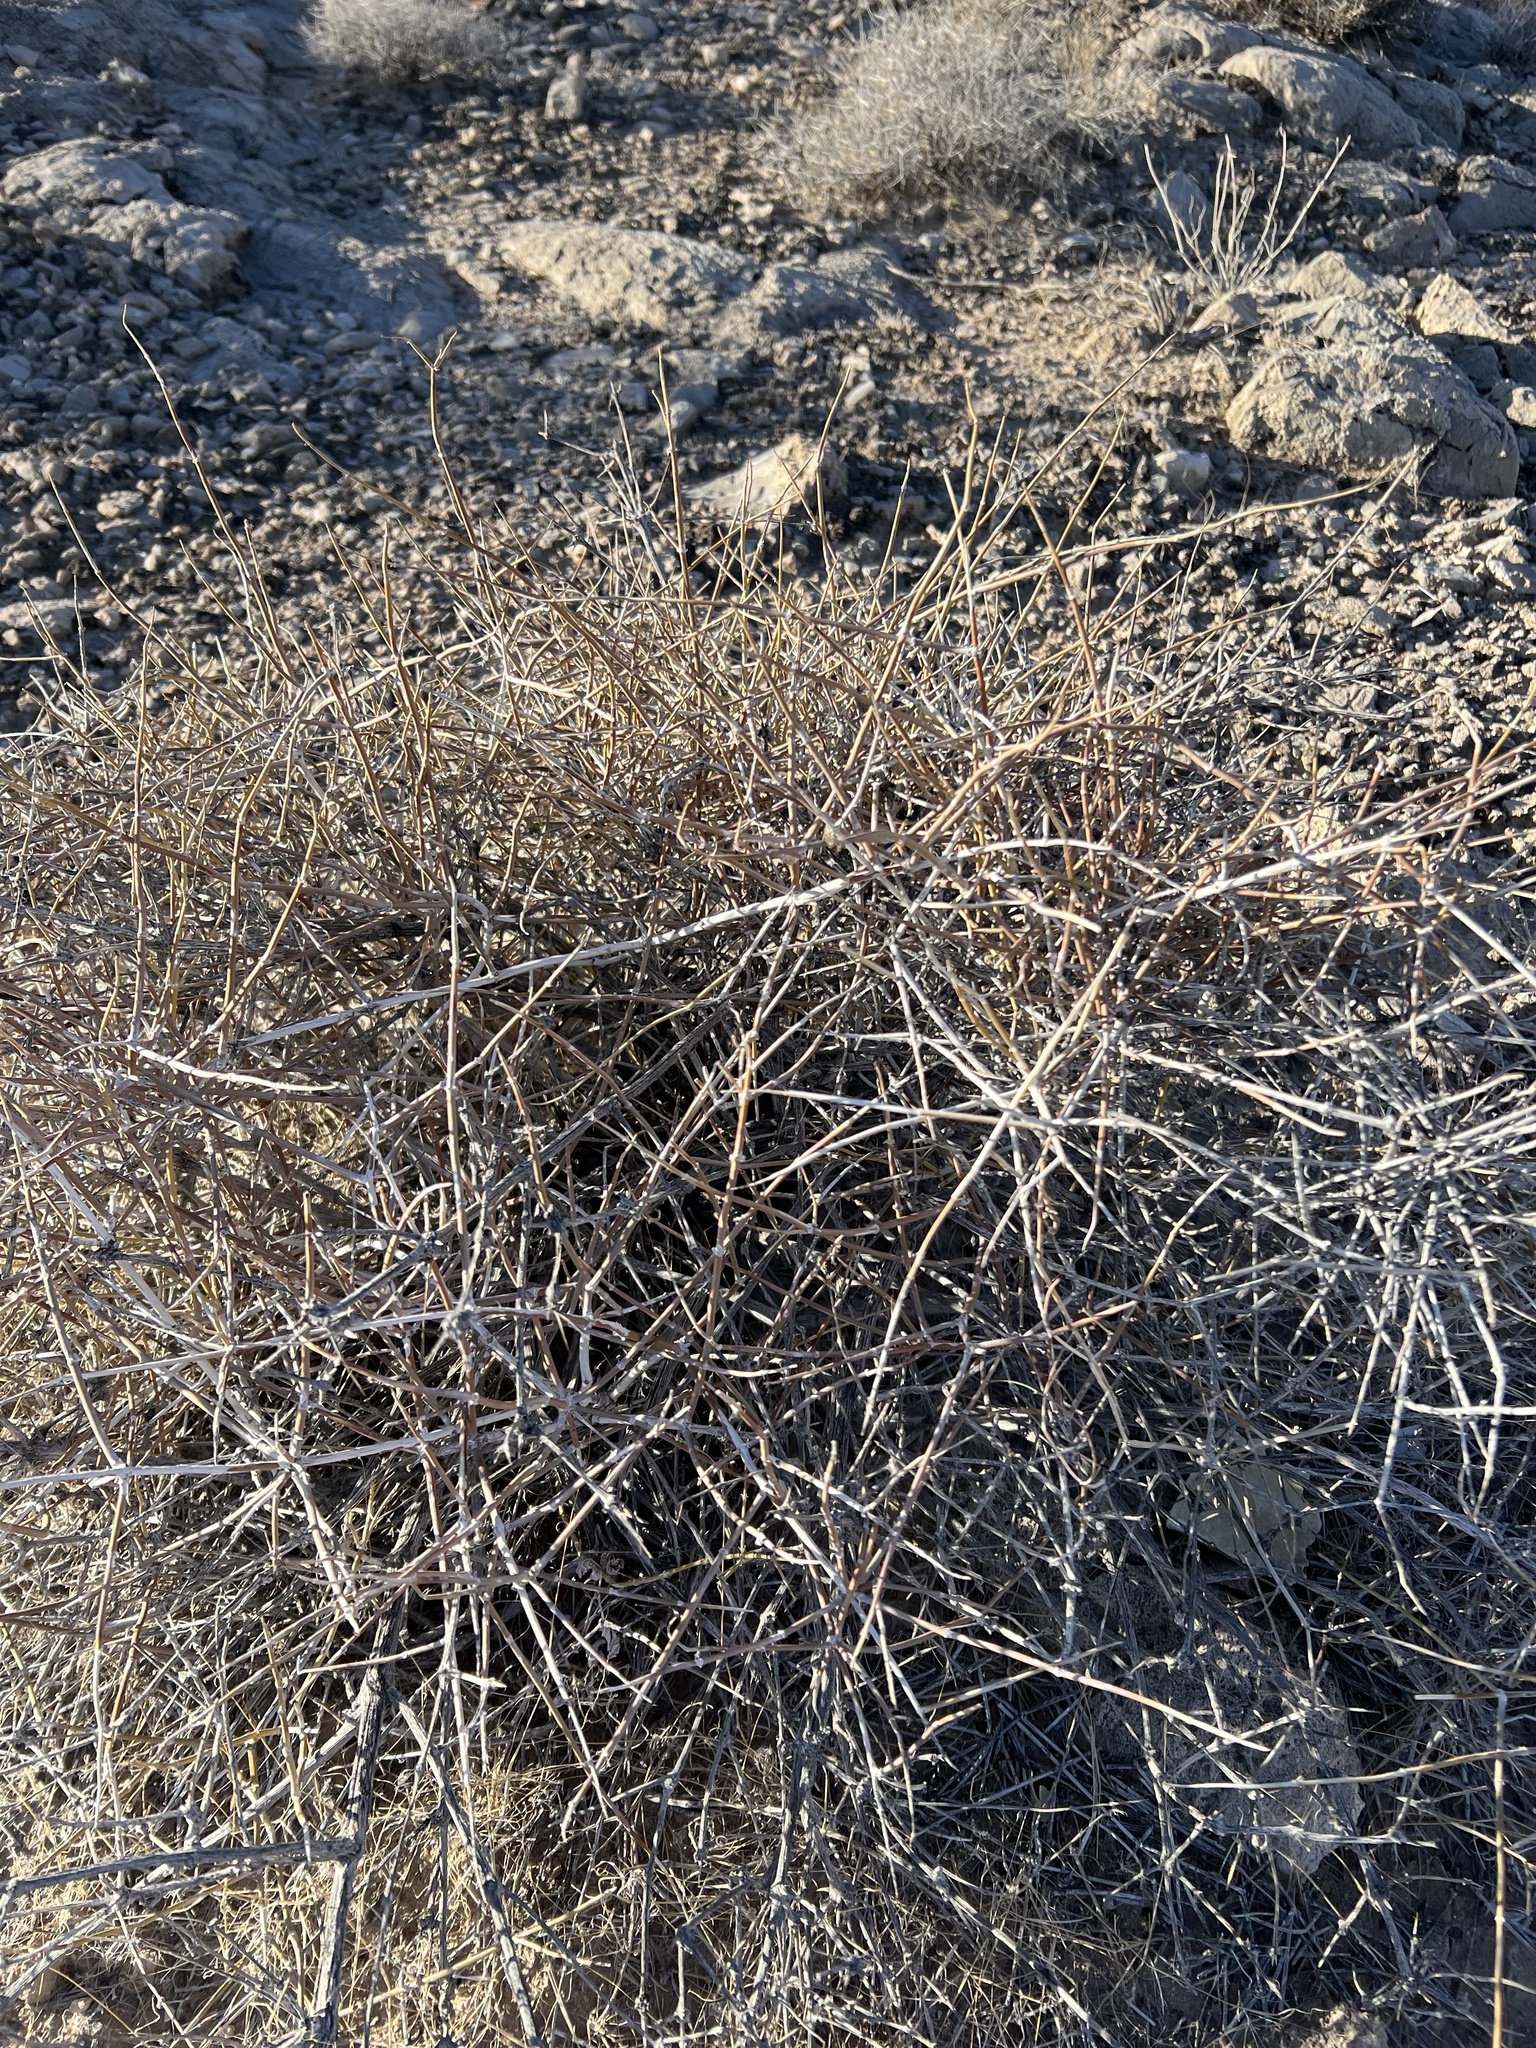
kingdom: Plantae
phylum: Tracheophyta
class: Gnetopsida
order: Ephedrales
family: Ephedraceae
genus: Ephedra
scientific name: Ephedra nevadensis
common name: Gray ephedra
